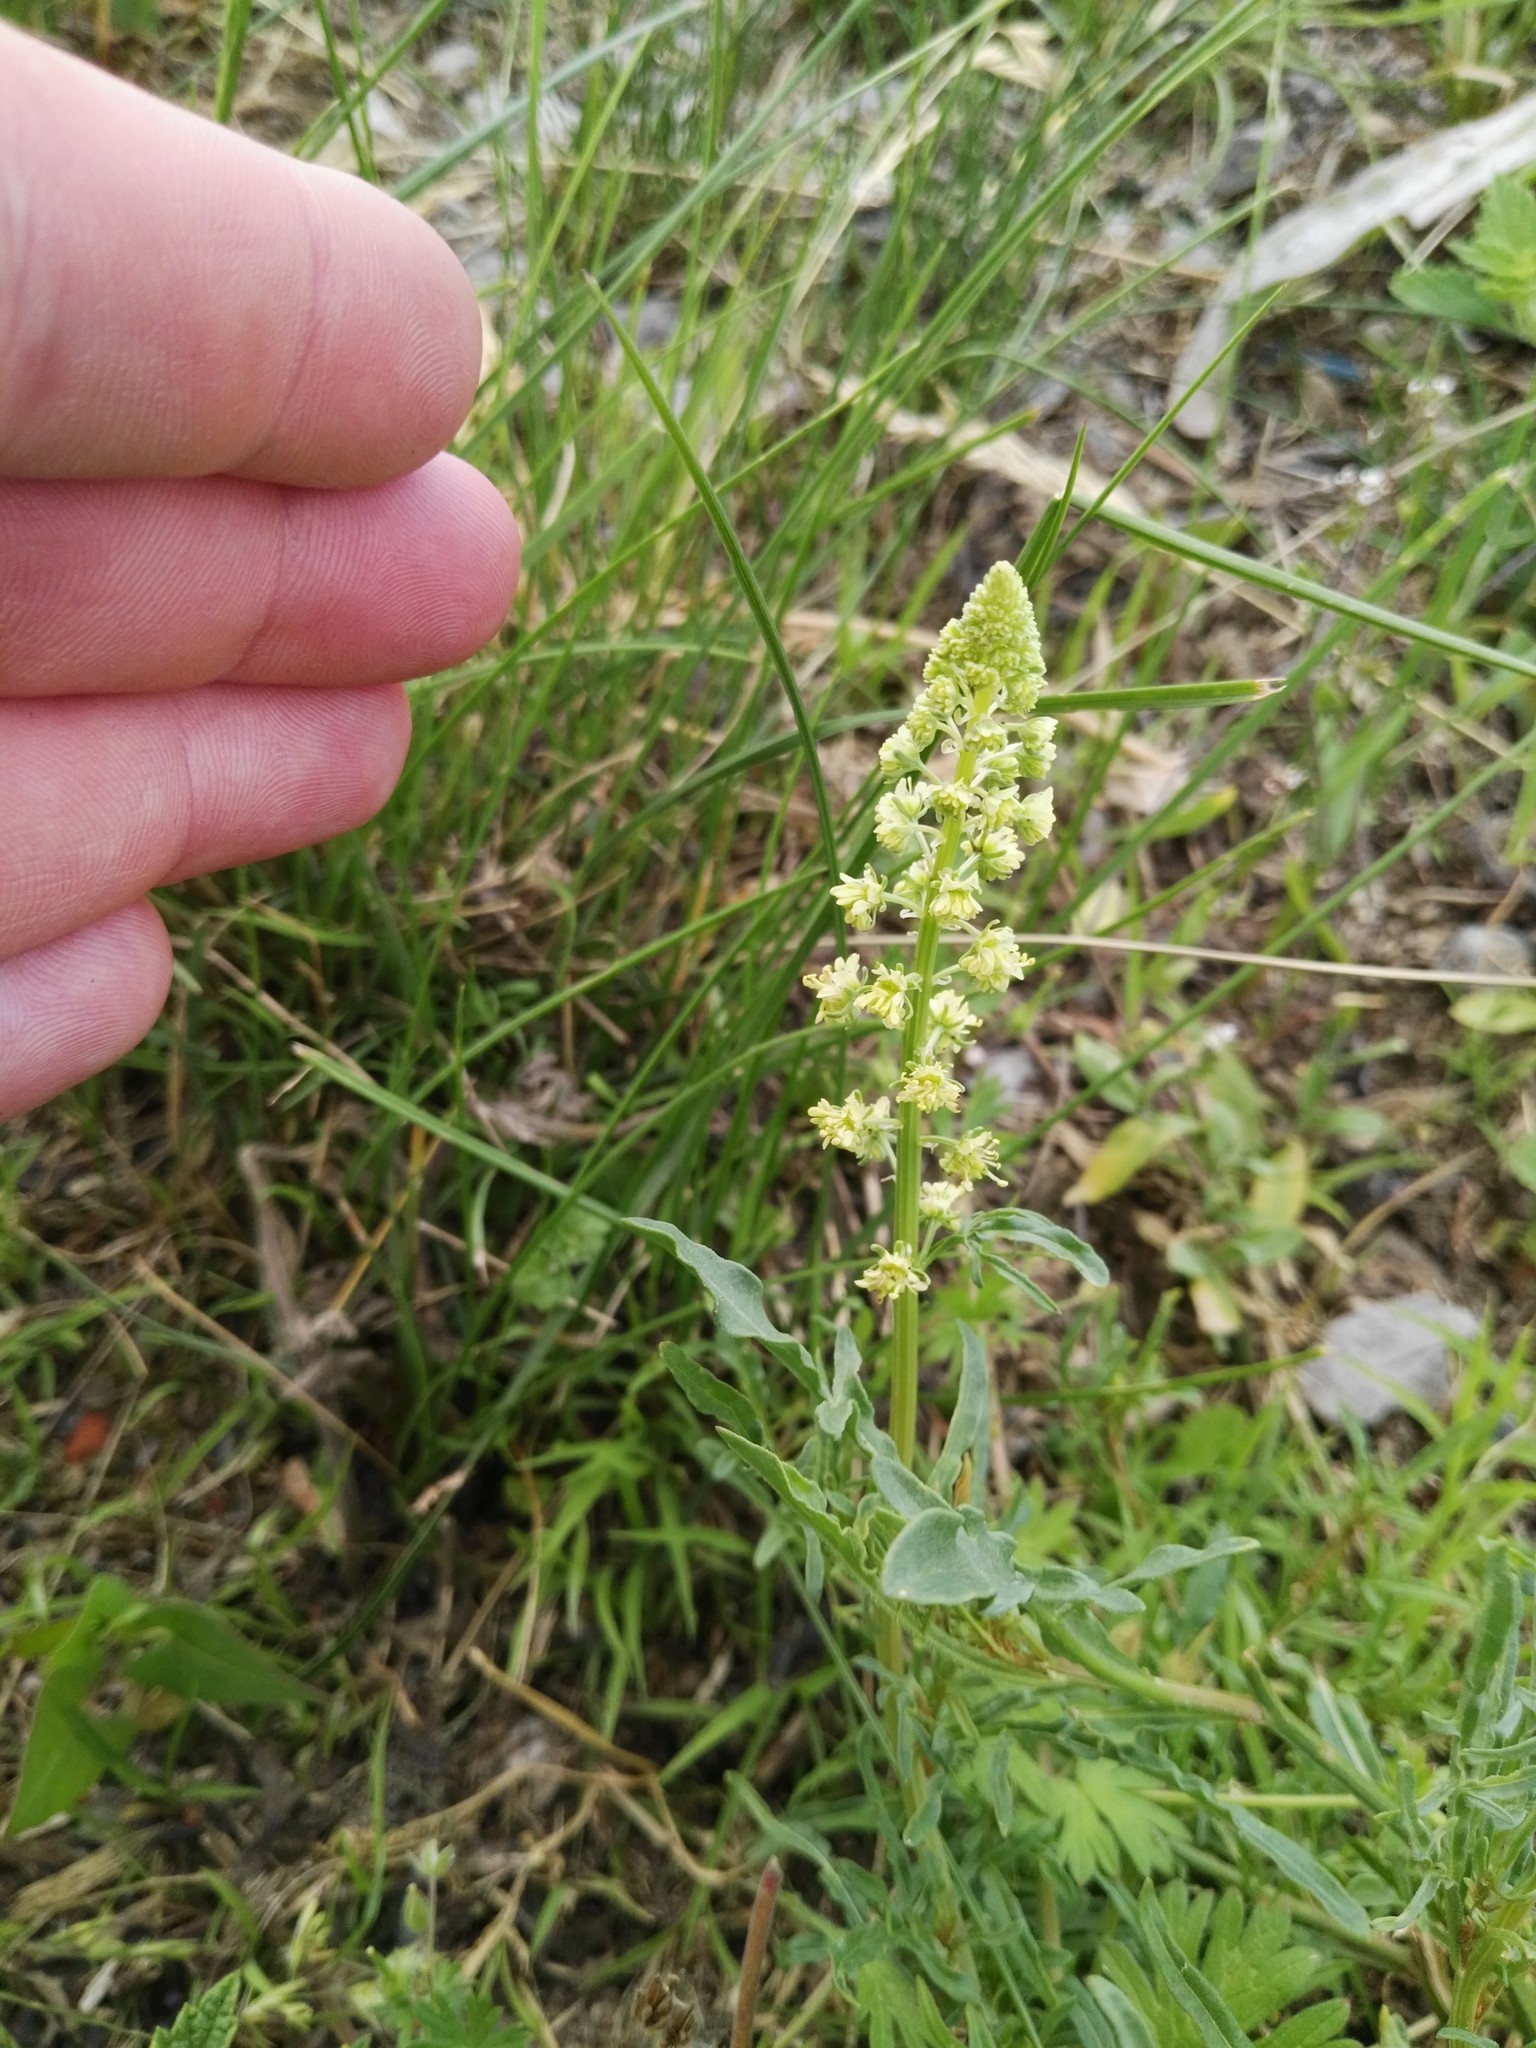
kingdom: Plantae
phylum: Tracheophyta
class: Magnoliopsida
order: Brassicales
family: Resedaceae
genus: Reseda
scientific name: Reseda lutea
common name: Wild mignonette
